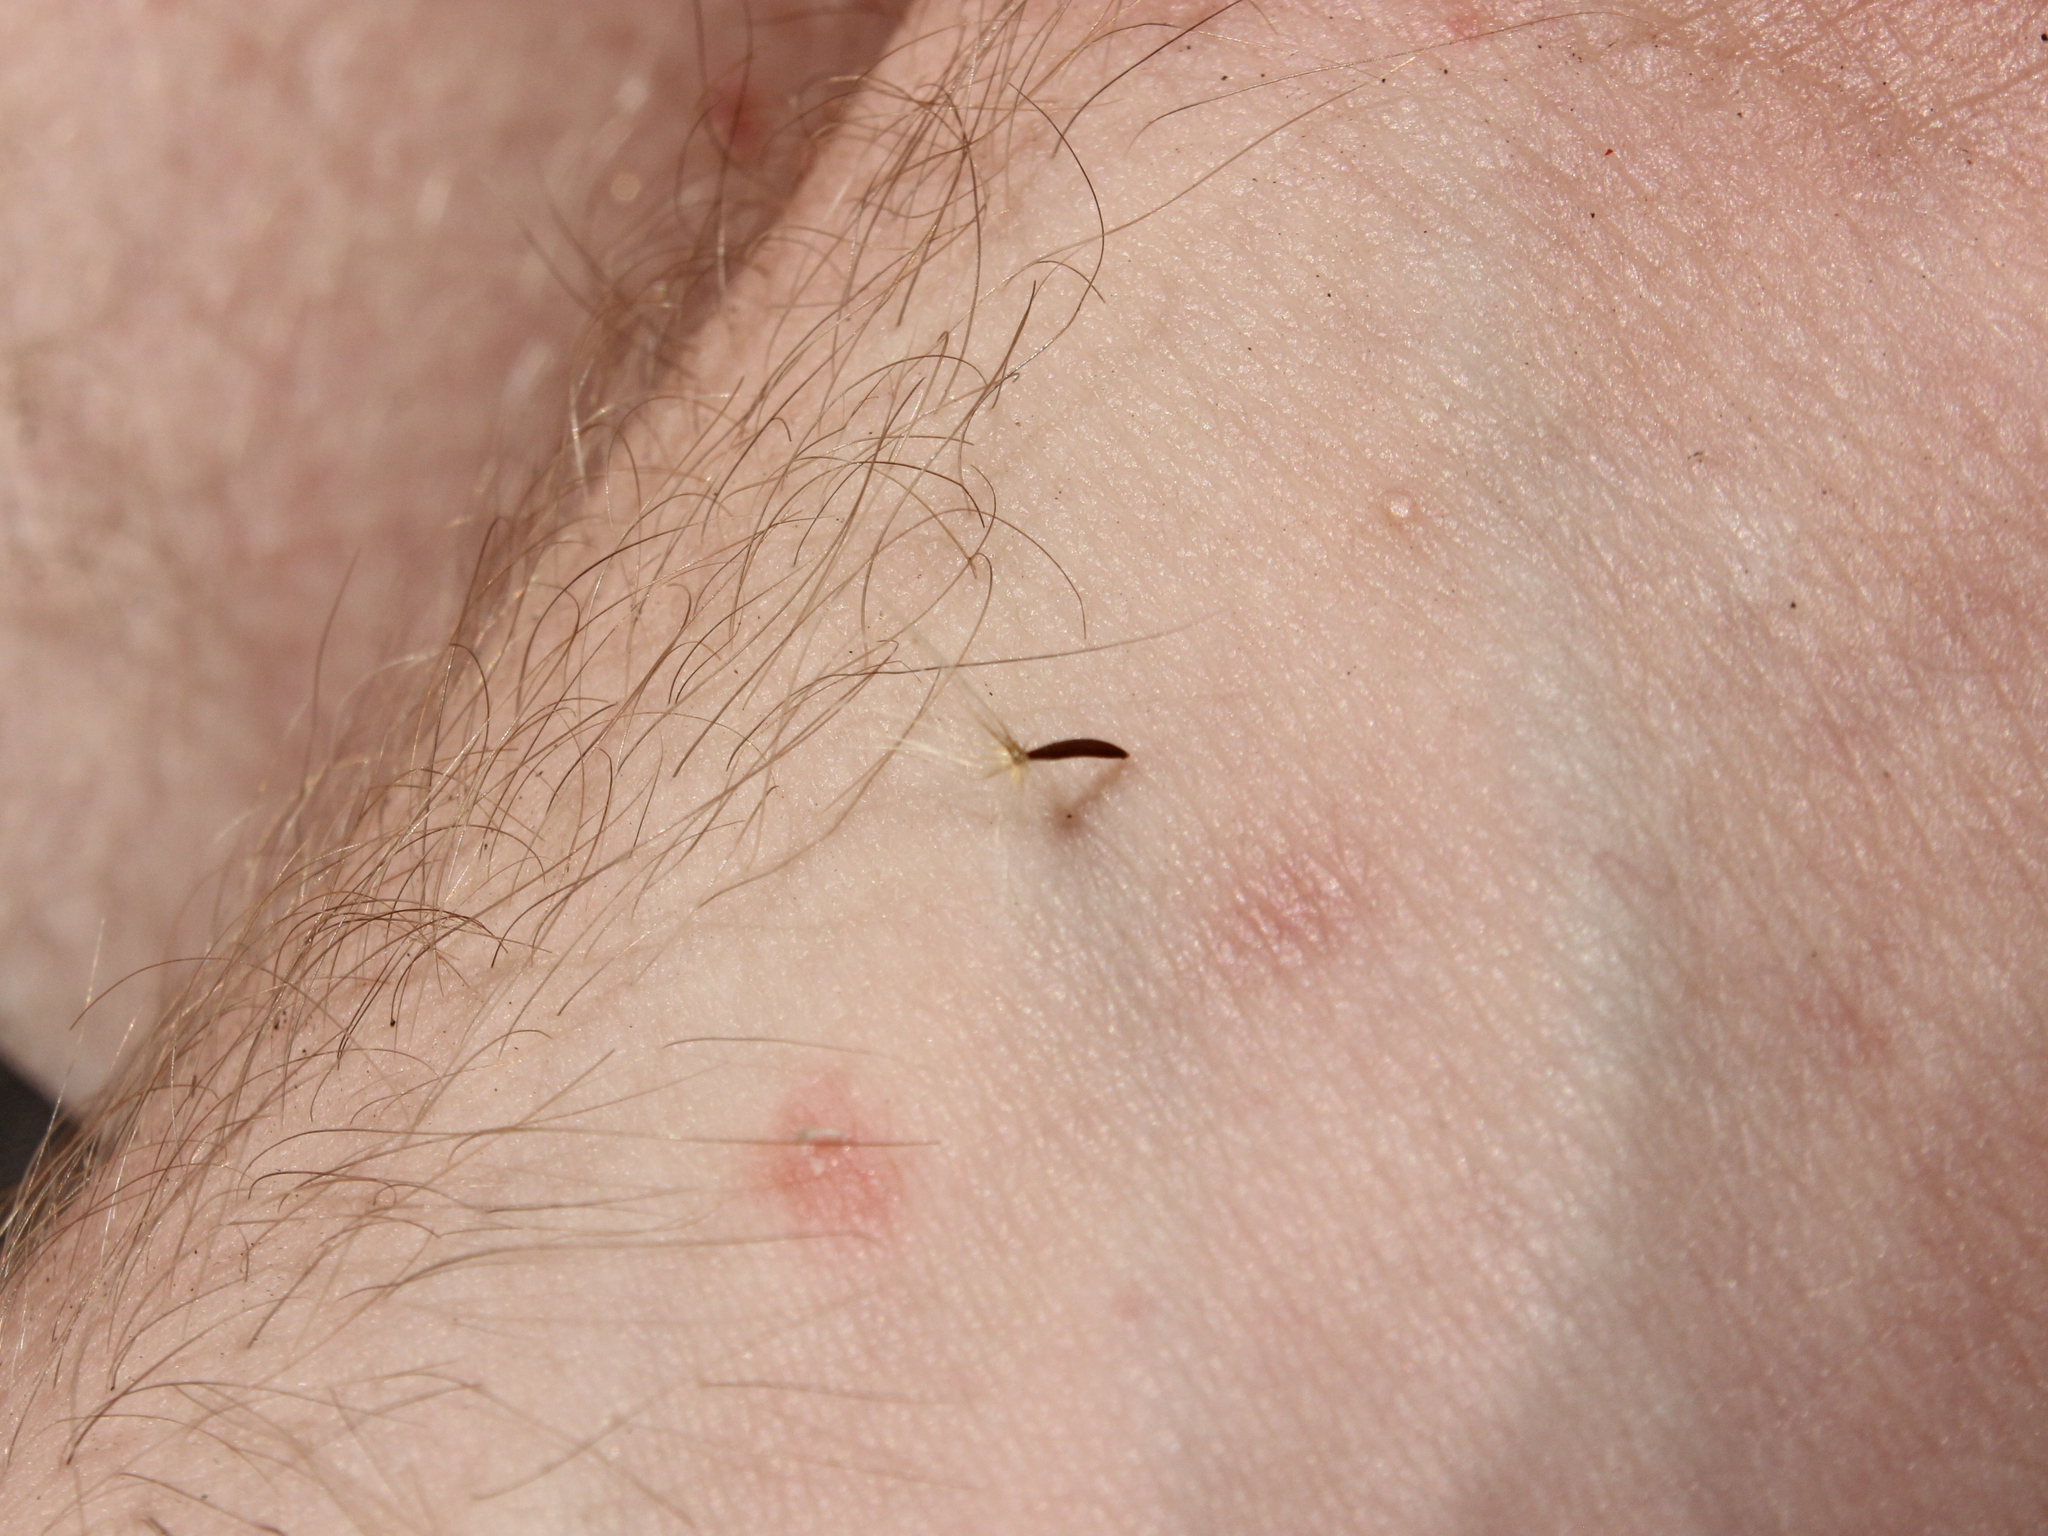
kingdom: Plantae
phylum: Tracheophyta
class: Magnoliopsida
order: Asterales
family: Asteraceae
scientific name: Asteraceae
